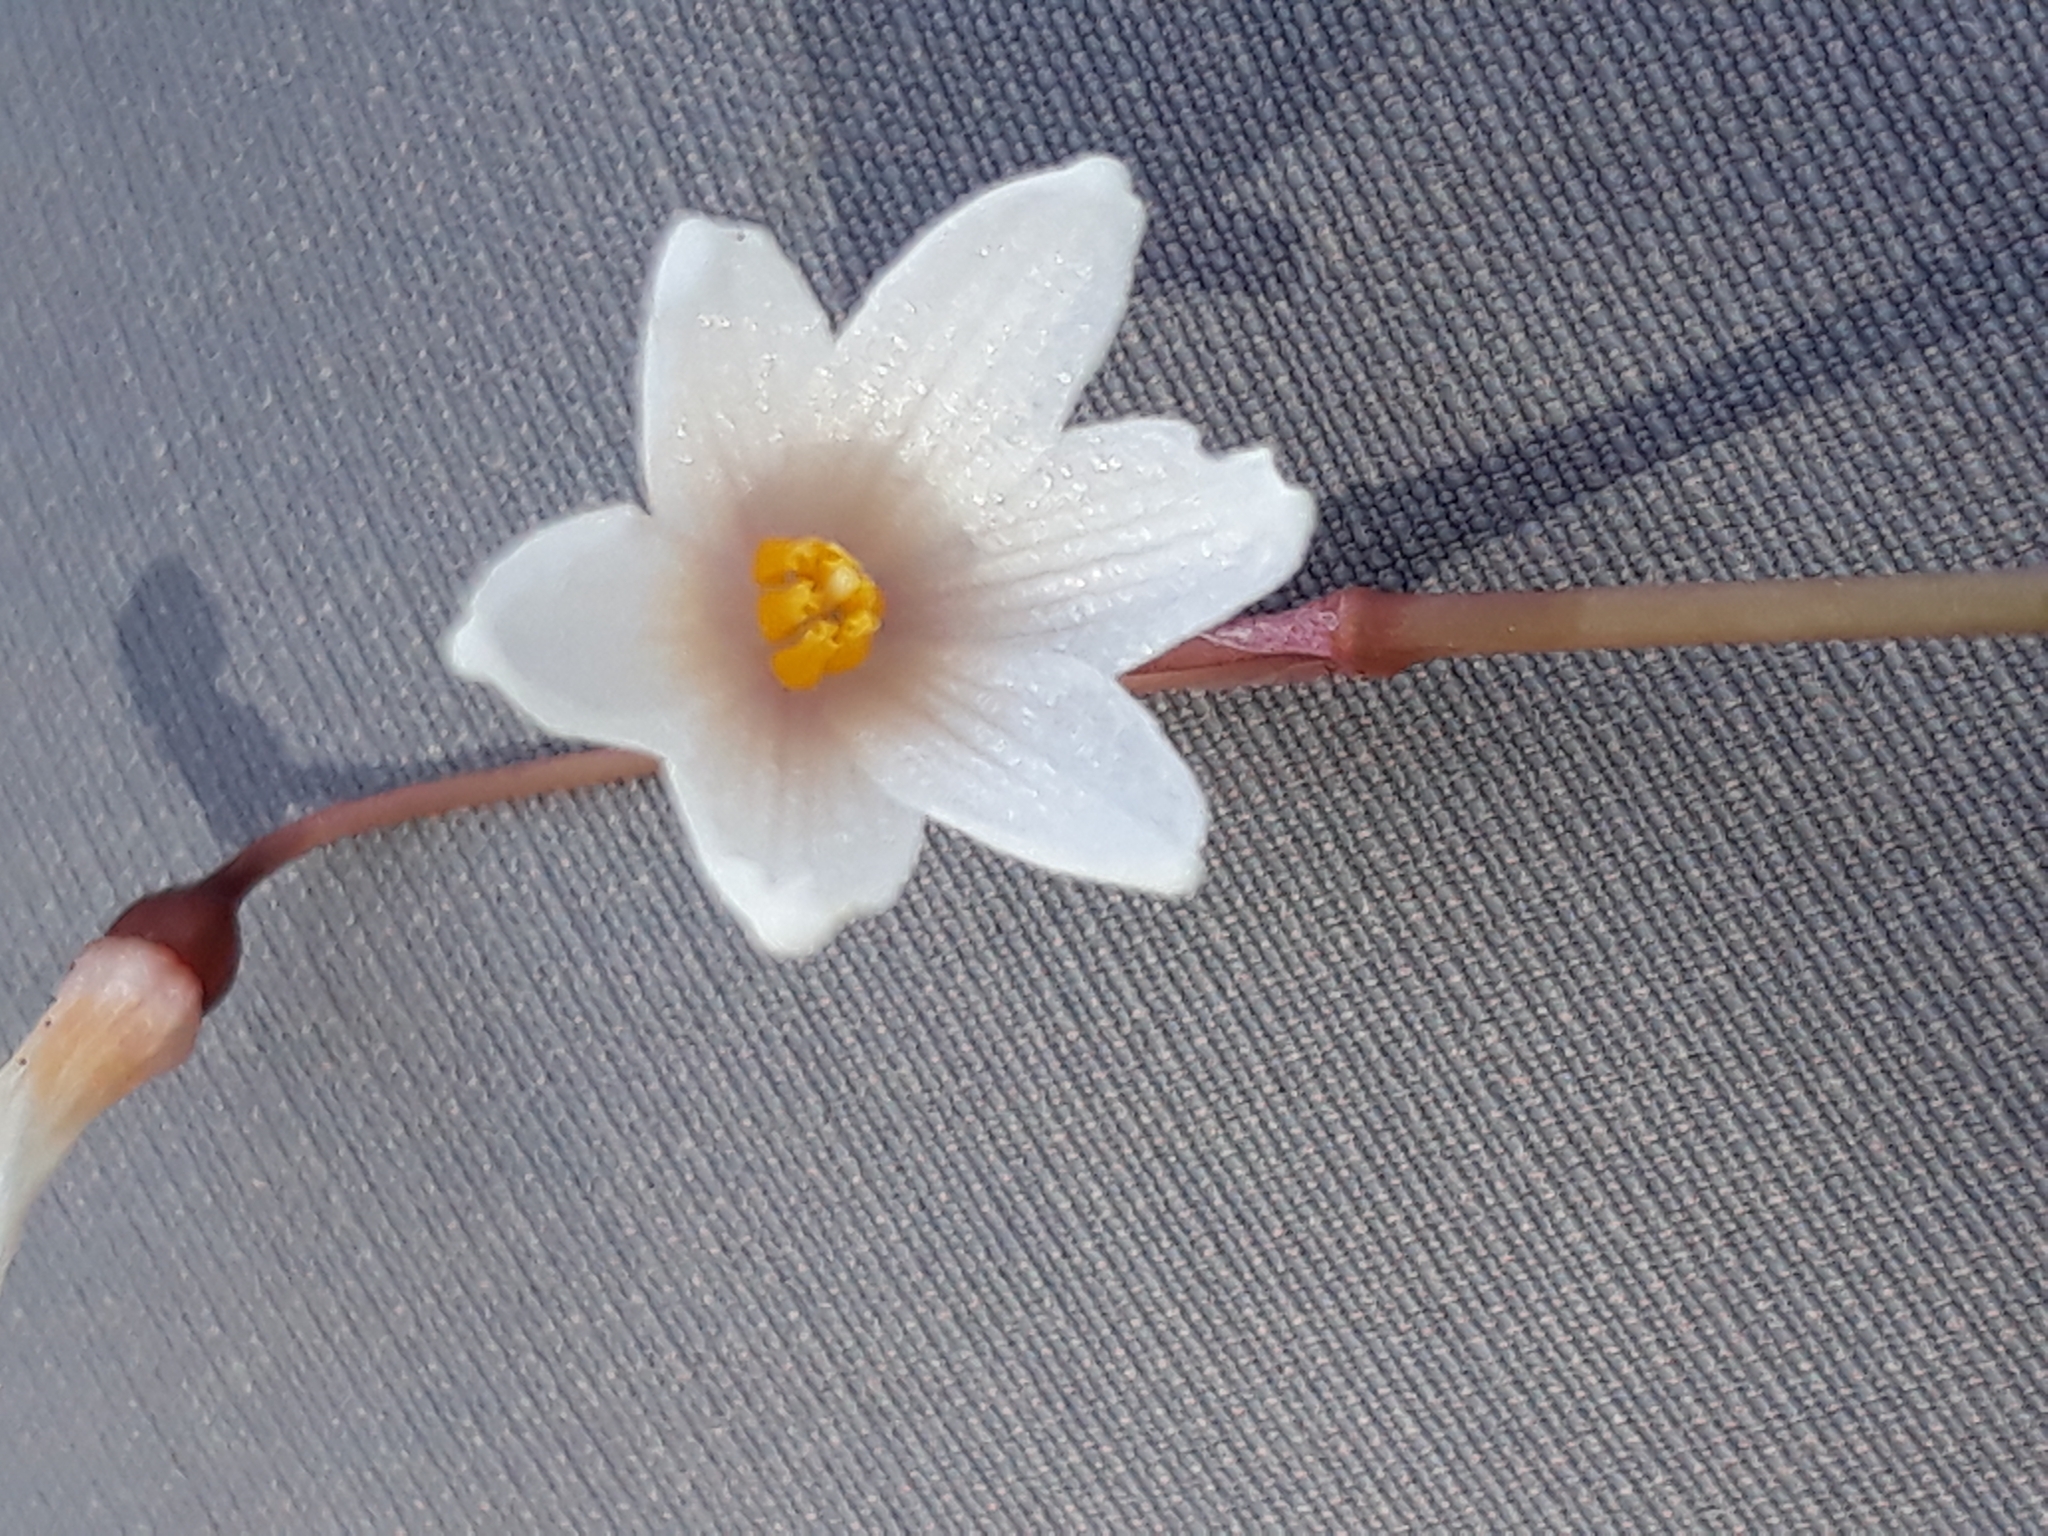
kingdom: Plantae
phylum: Tracheophyta
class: Liliopsida
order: Asparagales
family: Amaryllidaceae
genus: Acis
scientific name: Acis autumnalis
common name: Autumn snowflake
